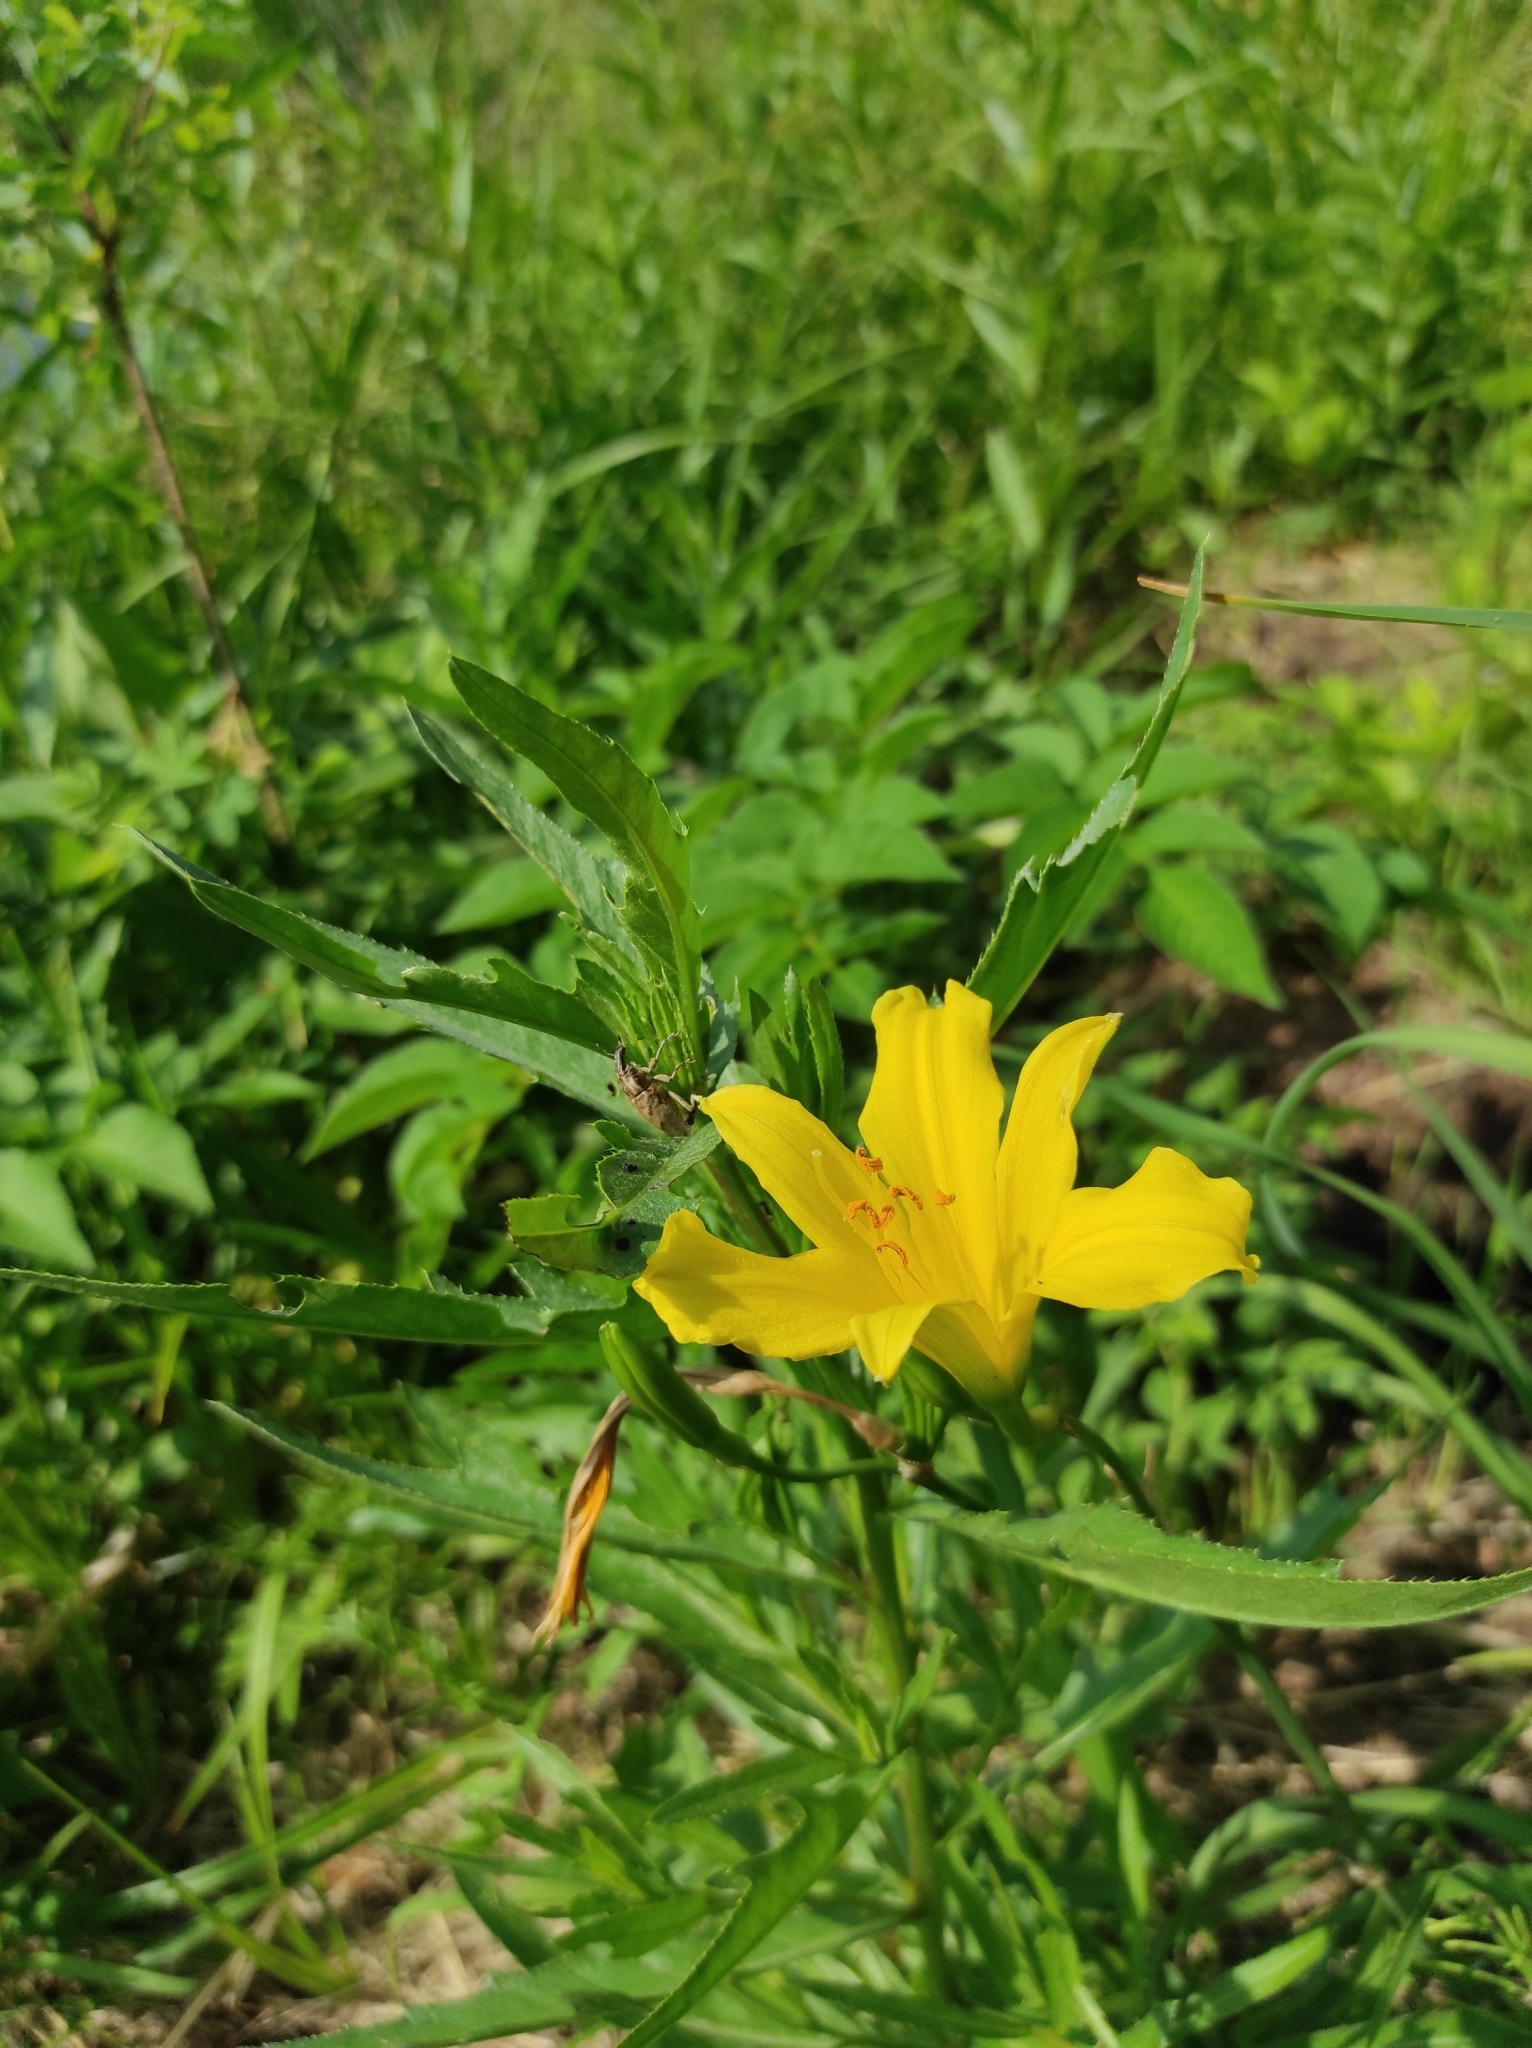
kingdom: Animalia
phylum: Arthropoda
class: Insecta
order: Coleoptera
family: Curculionidae
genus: Cleonis
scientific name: Cleonis pigra
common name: Large thistle weevil
